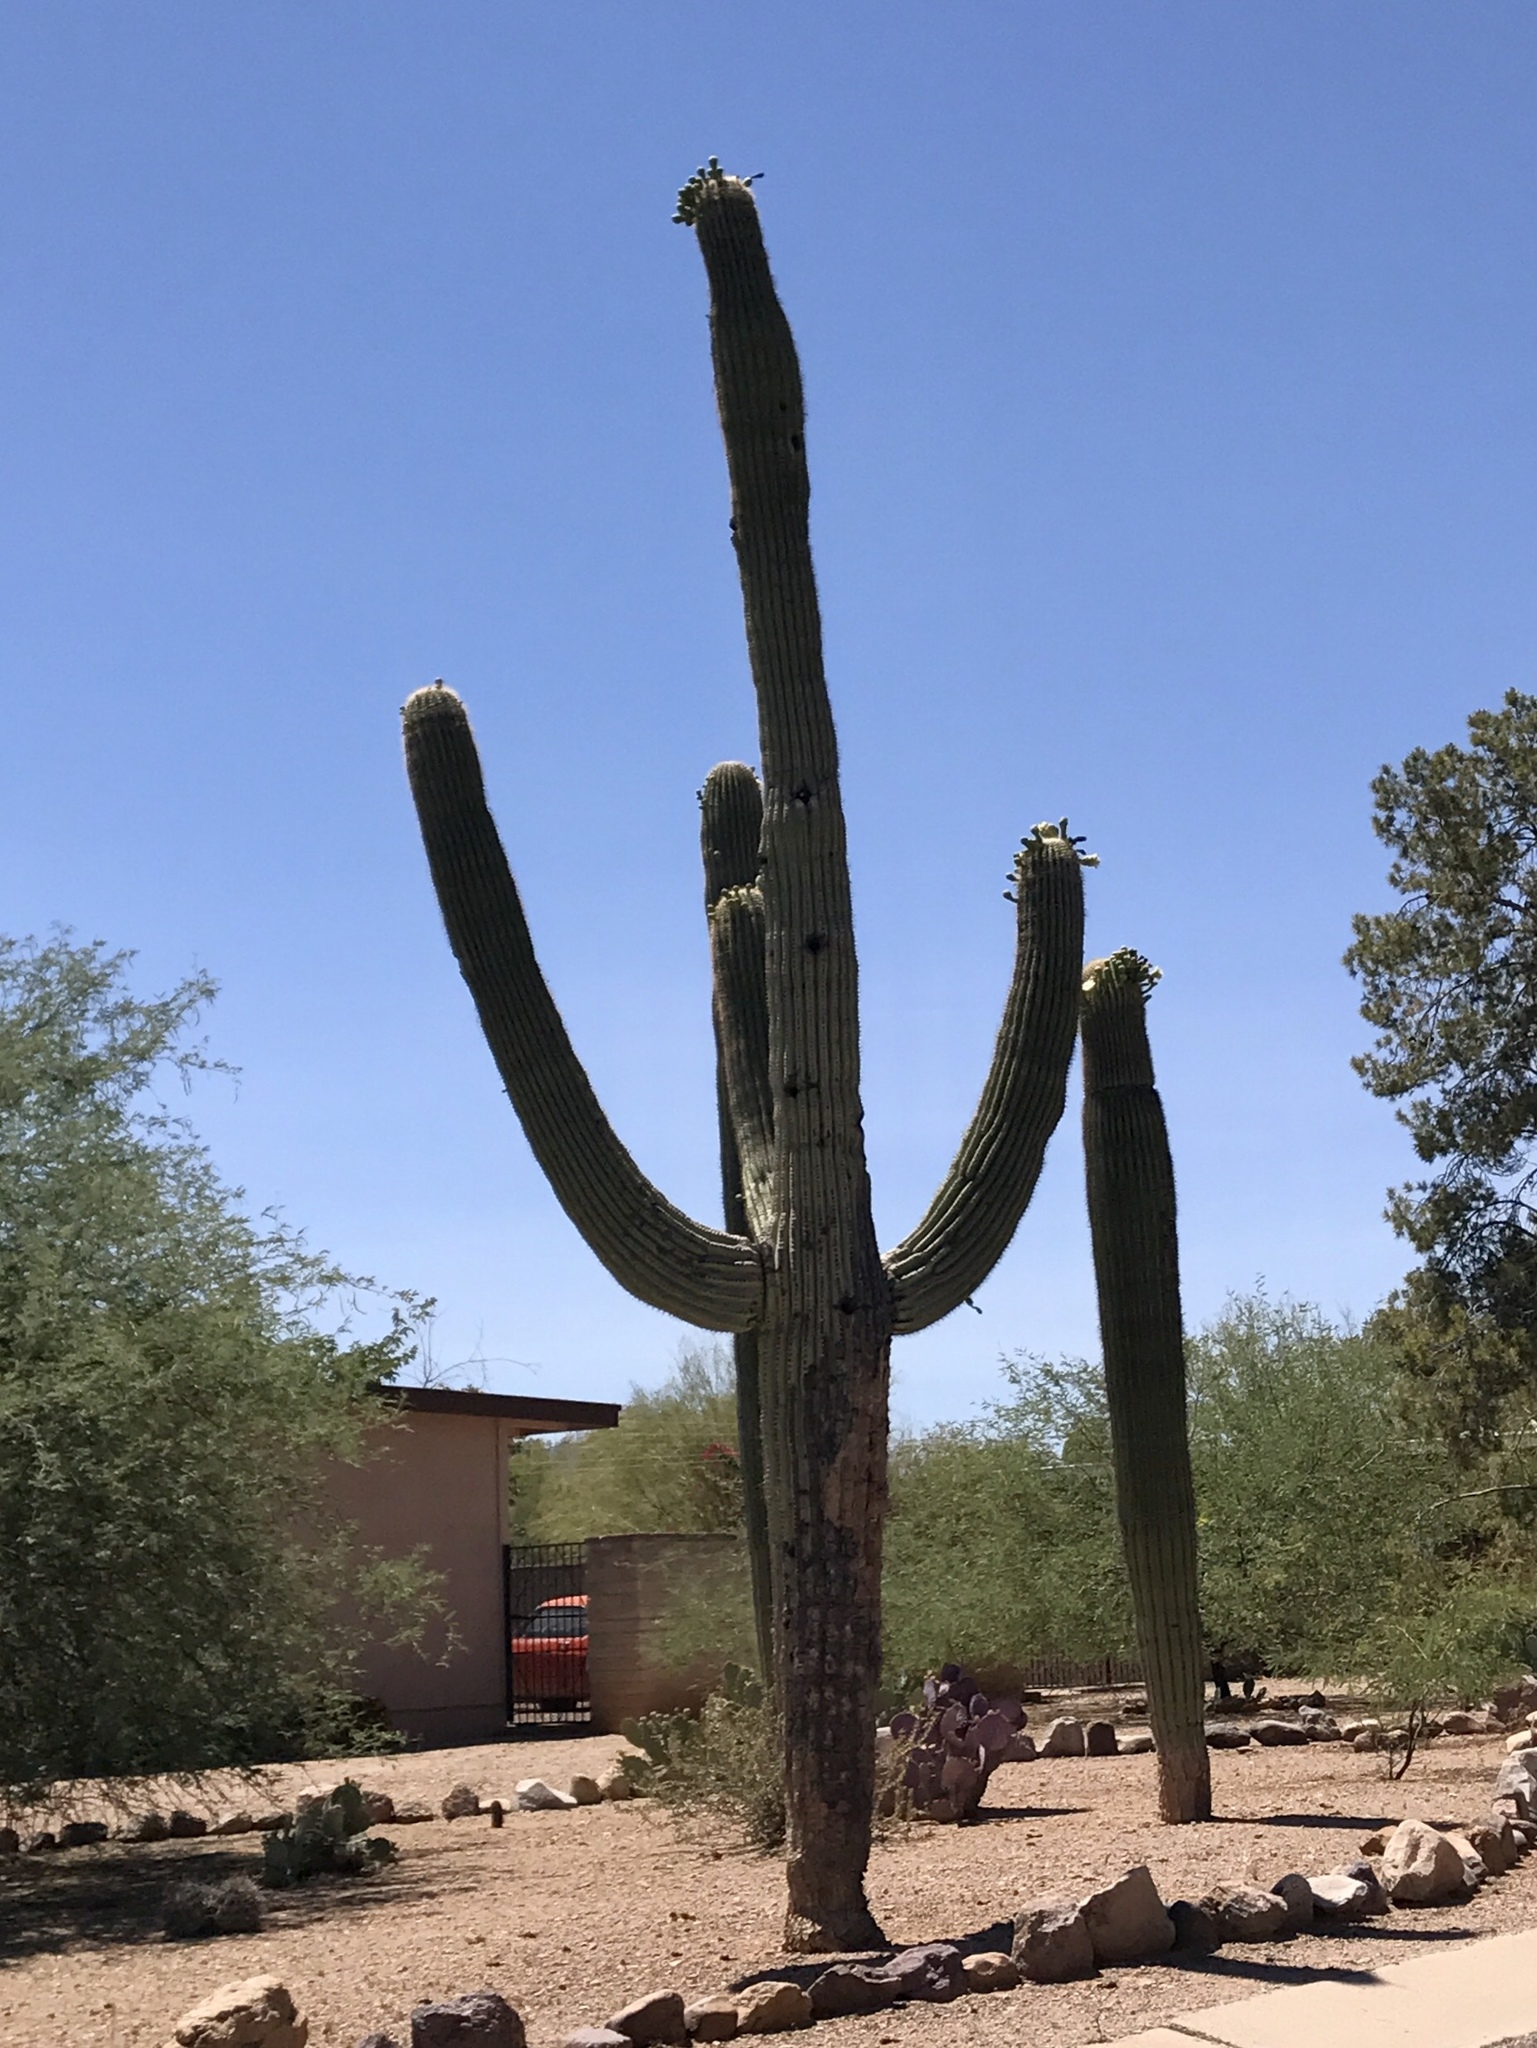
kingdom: Plantae
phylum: Tracheophyta
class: Magnoliopsida
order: Caryophyllales
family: Cactaceae
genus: Carnegiea
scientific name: Carnegiea gigantea
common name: Saguaro
